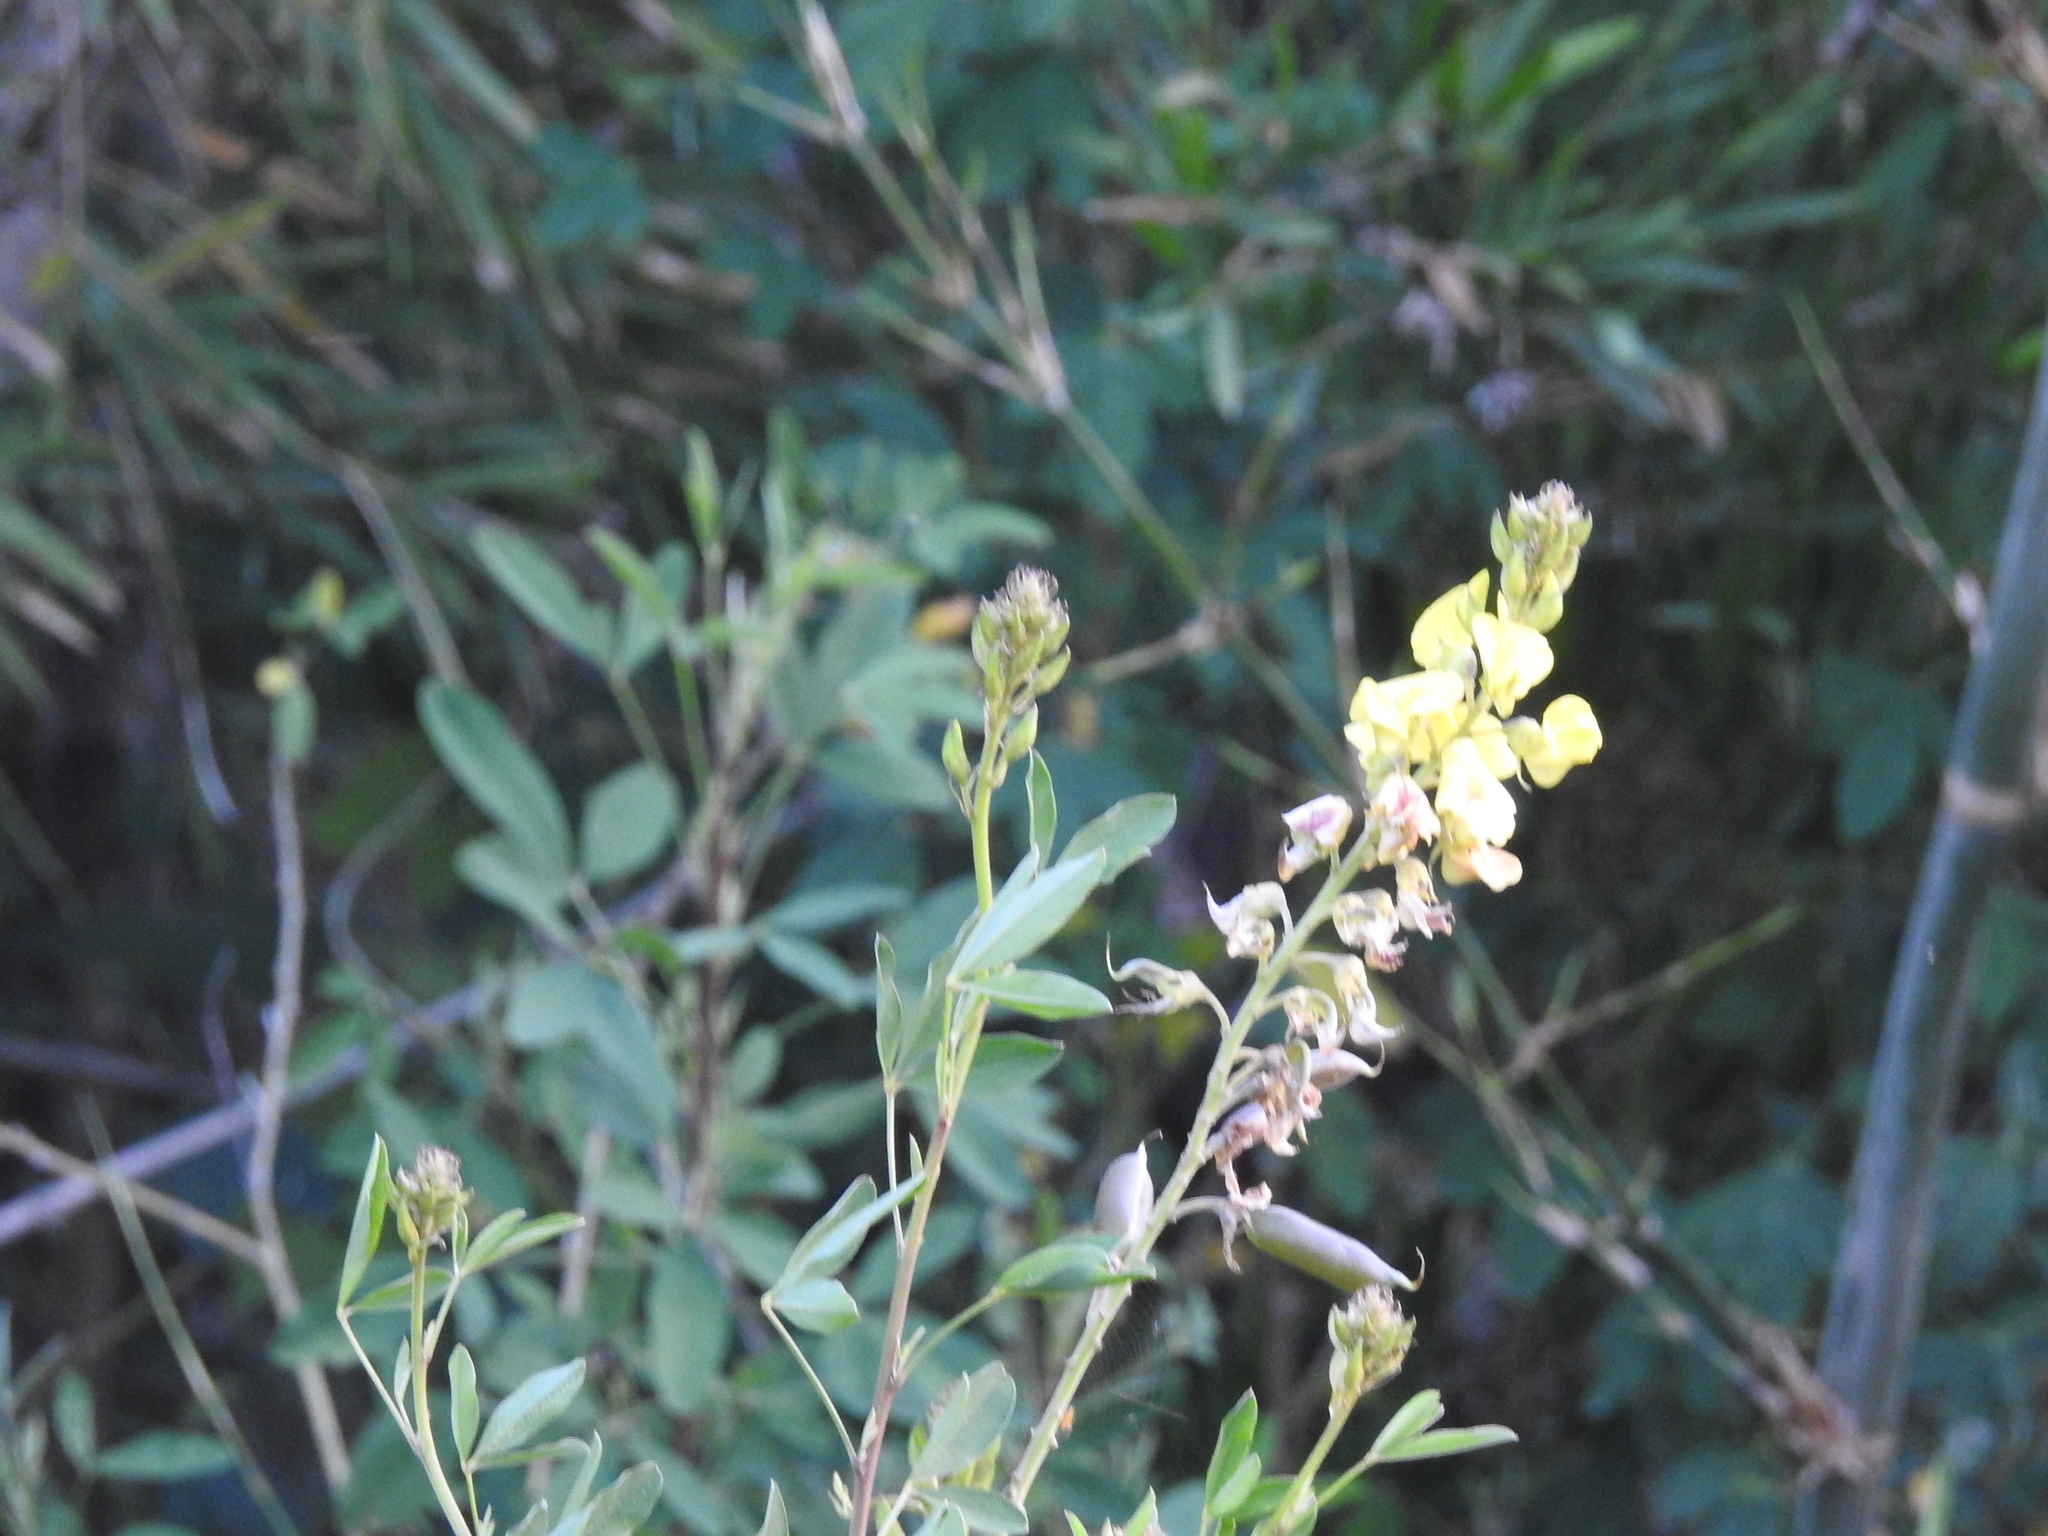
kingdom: Plantae
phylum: Tracheophyta
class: Magnoliopsida
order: Fabales
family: Fabaceae
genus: Crotalaria
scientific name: Crotalaria micans
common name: Caracas rattlebox
